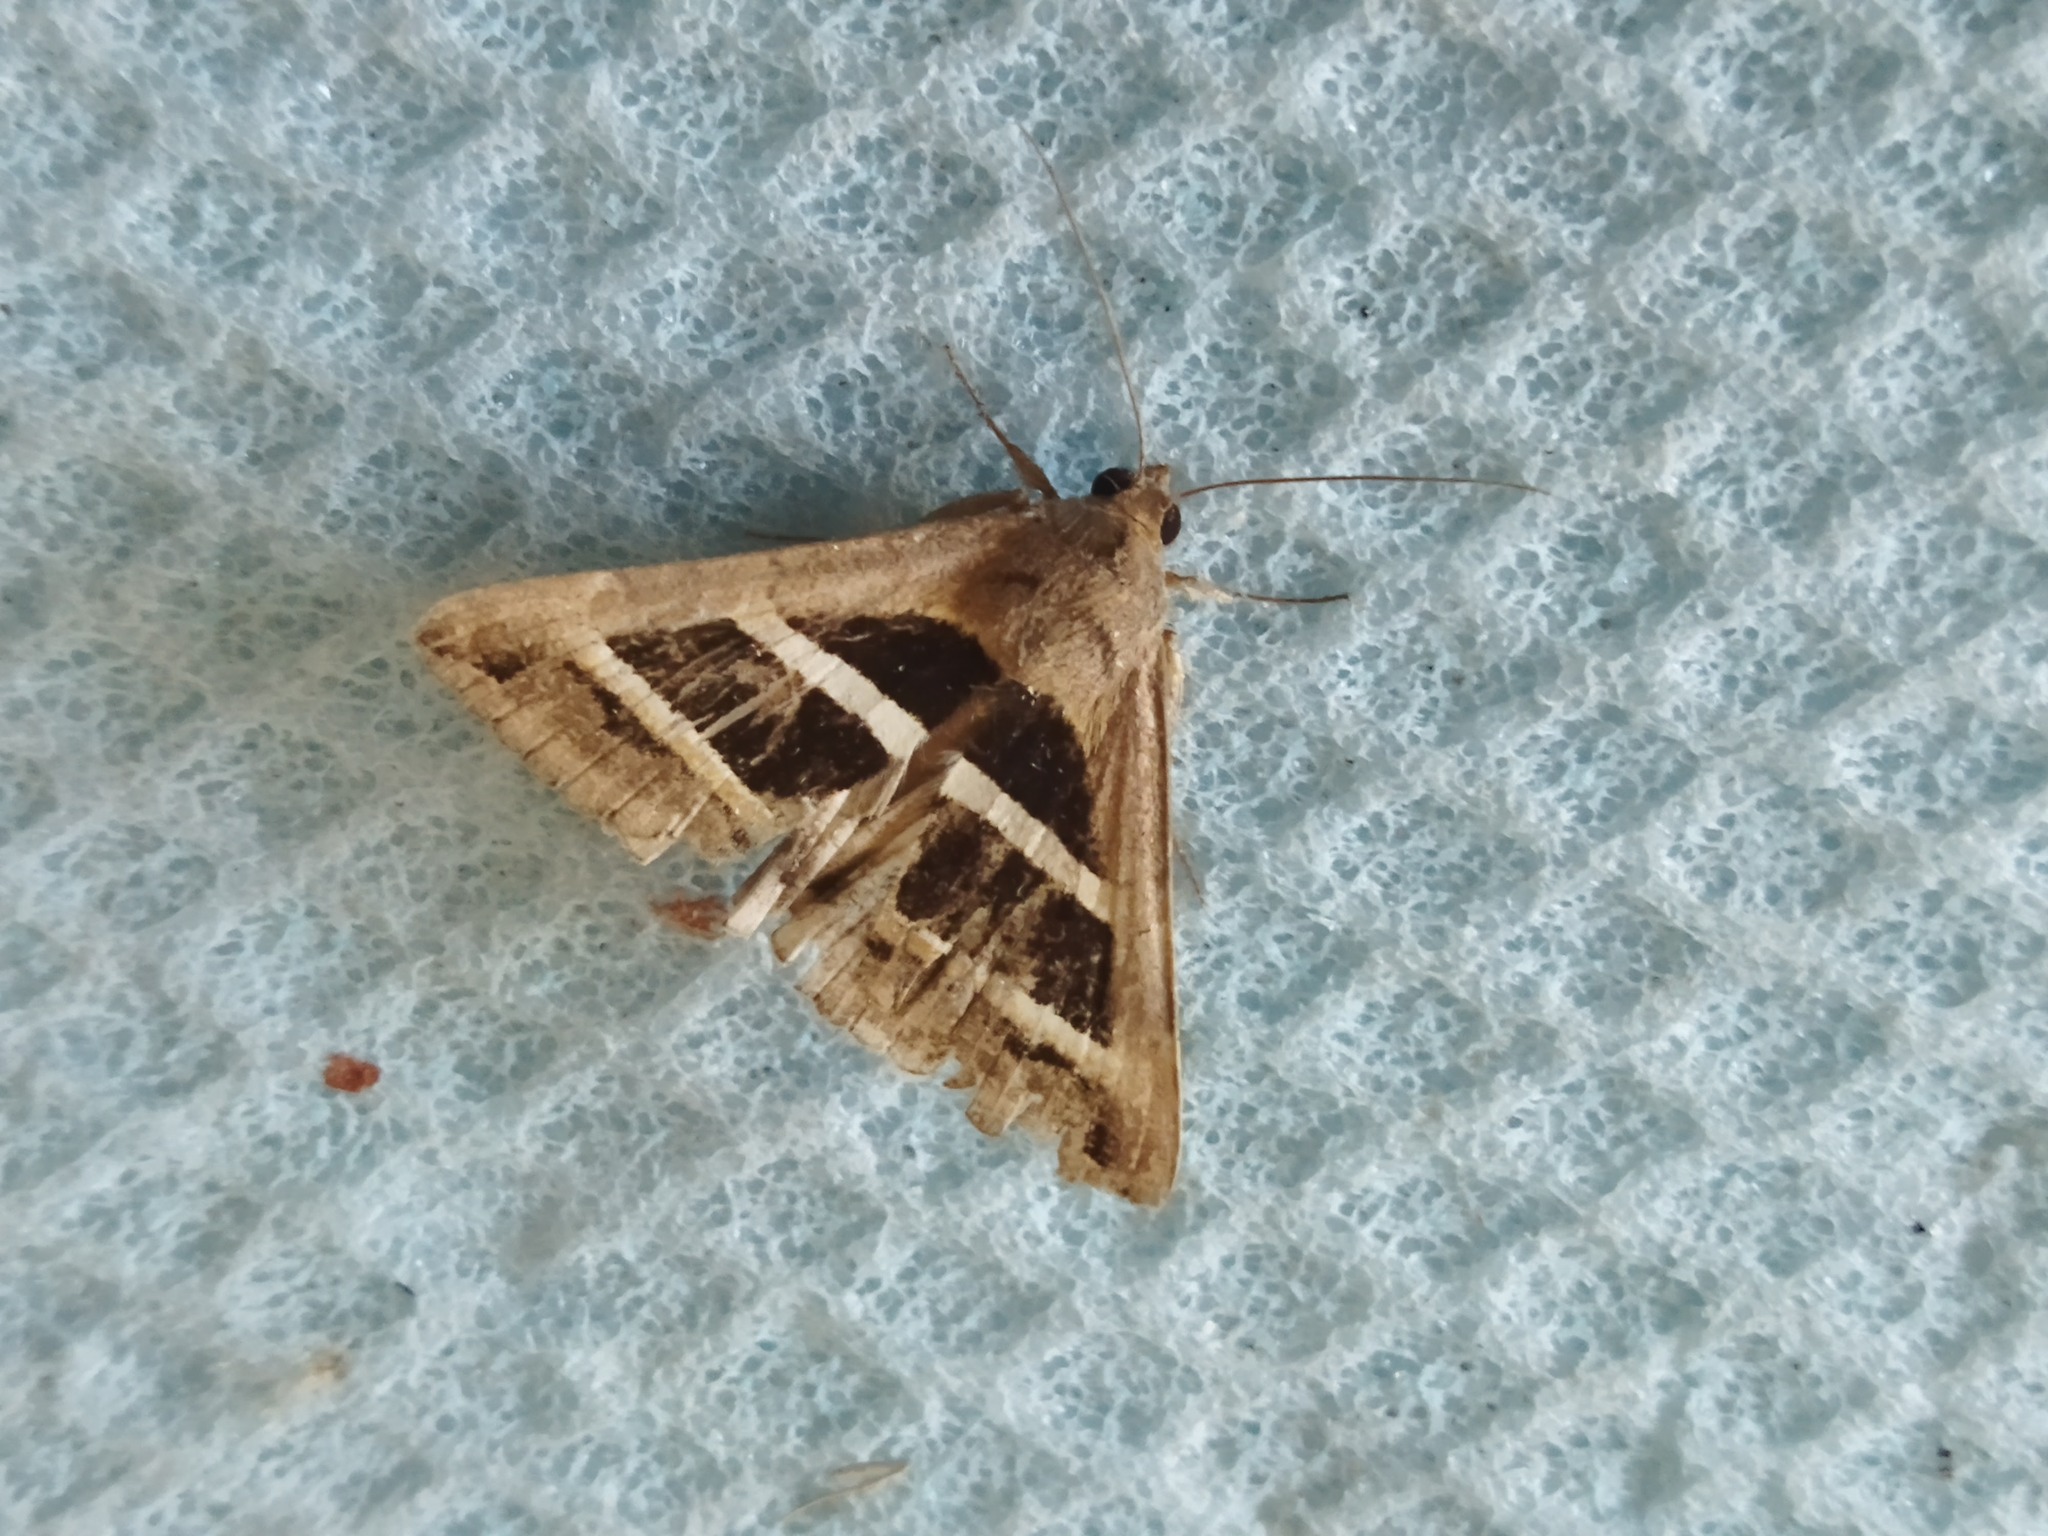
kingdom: Animalia
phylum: Arthropoda
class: Insecta
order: Lepidoptera
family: Erebidae
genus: Grammodes
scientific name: Grammodes bifasciata
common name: Parallel lines
